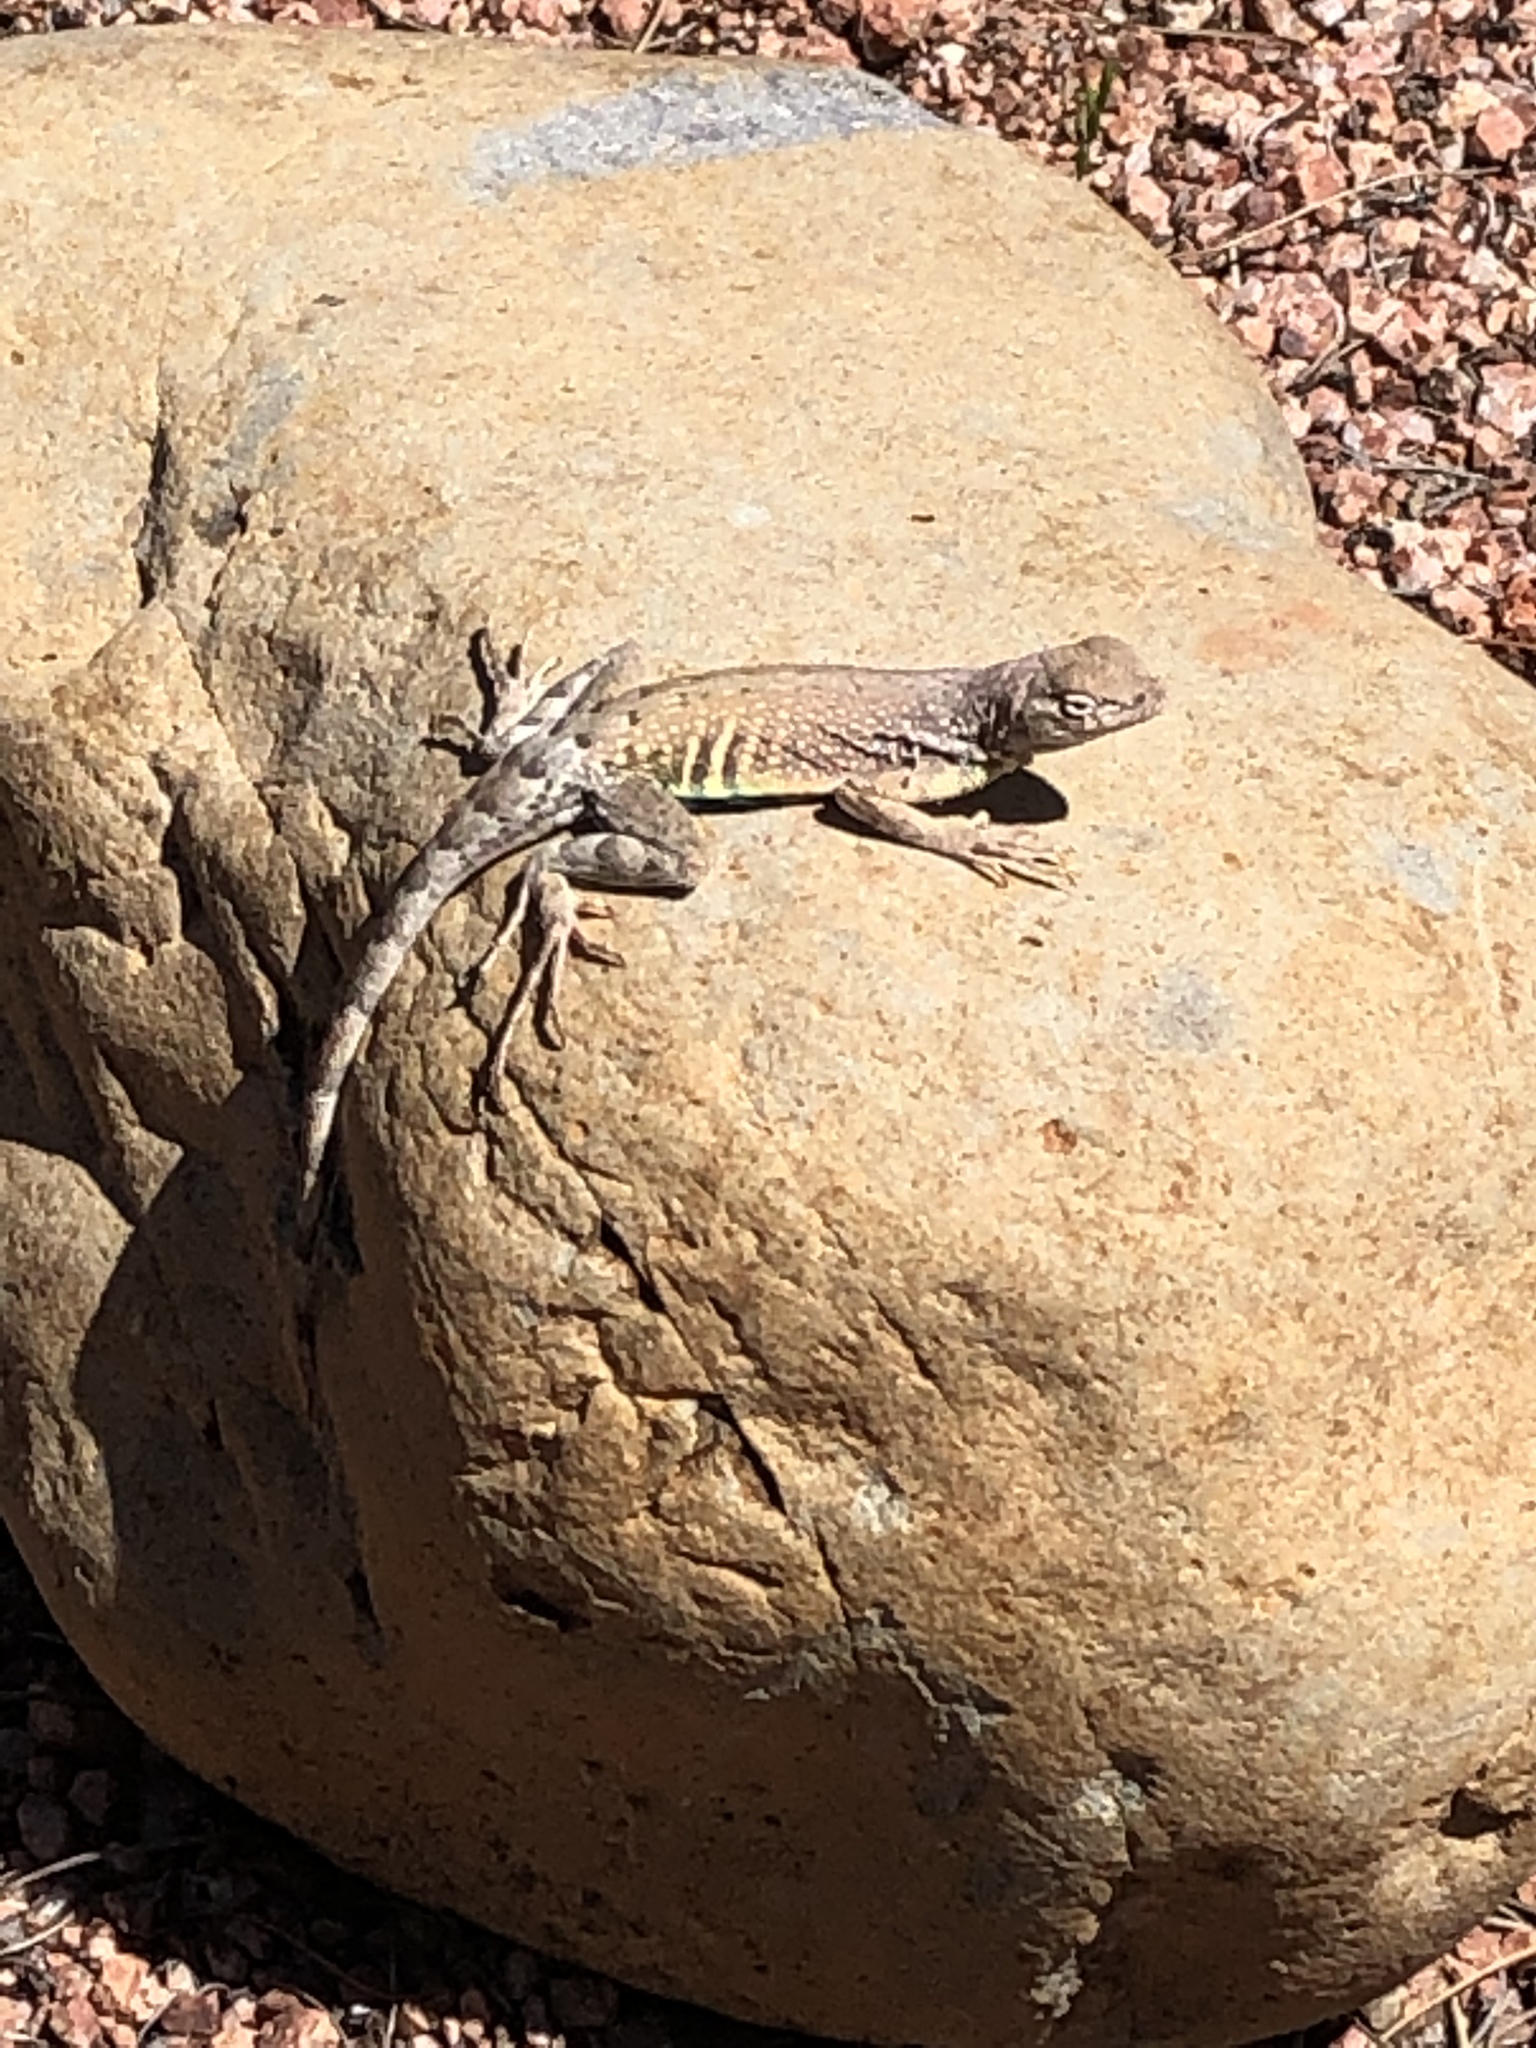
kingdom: Animalia
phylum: Chordata
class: Squamata
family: Phrynosomatidae
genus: Cophosaurus
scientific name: Cophosaurus texanus
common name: Greater earless lizard
